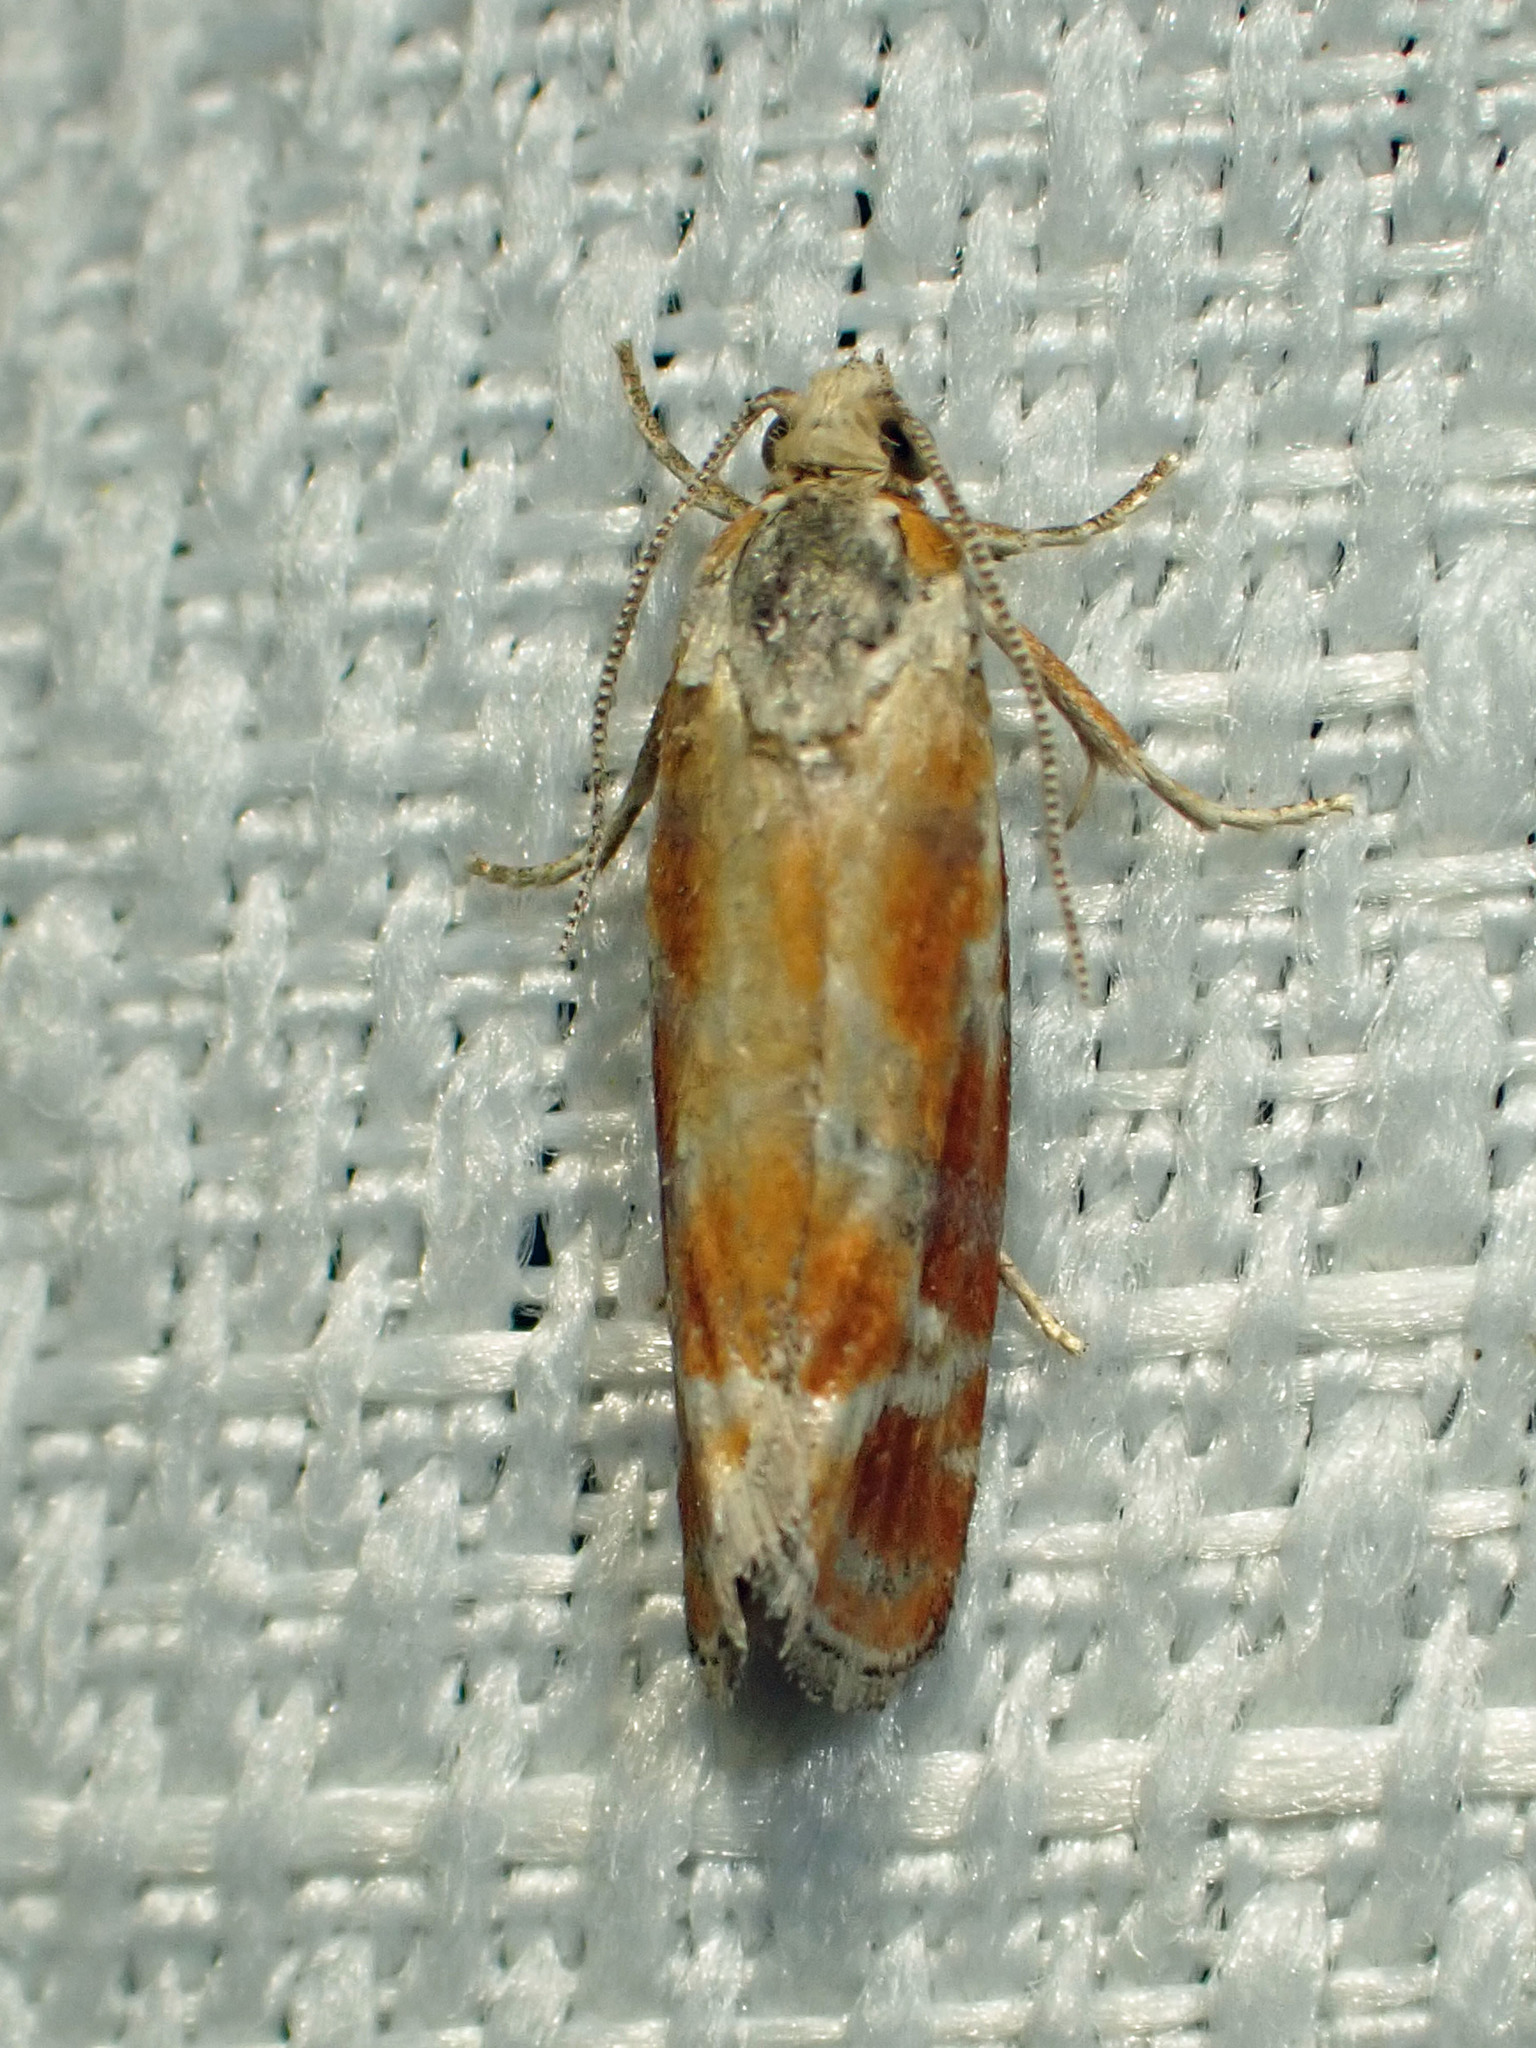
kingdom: Animalia
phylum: Arthropoda
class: Insecta
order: Lepidoptera
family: Tortricidae
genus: Rhyacionia
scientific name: Rhyacionia buoliana
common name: European pine shoot moth
